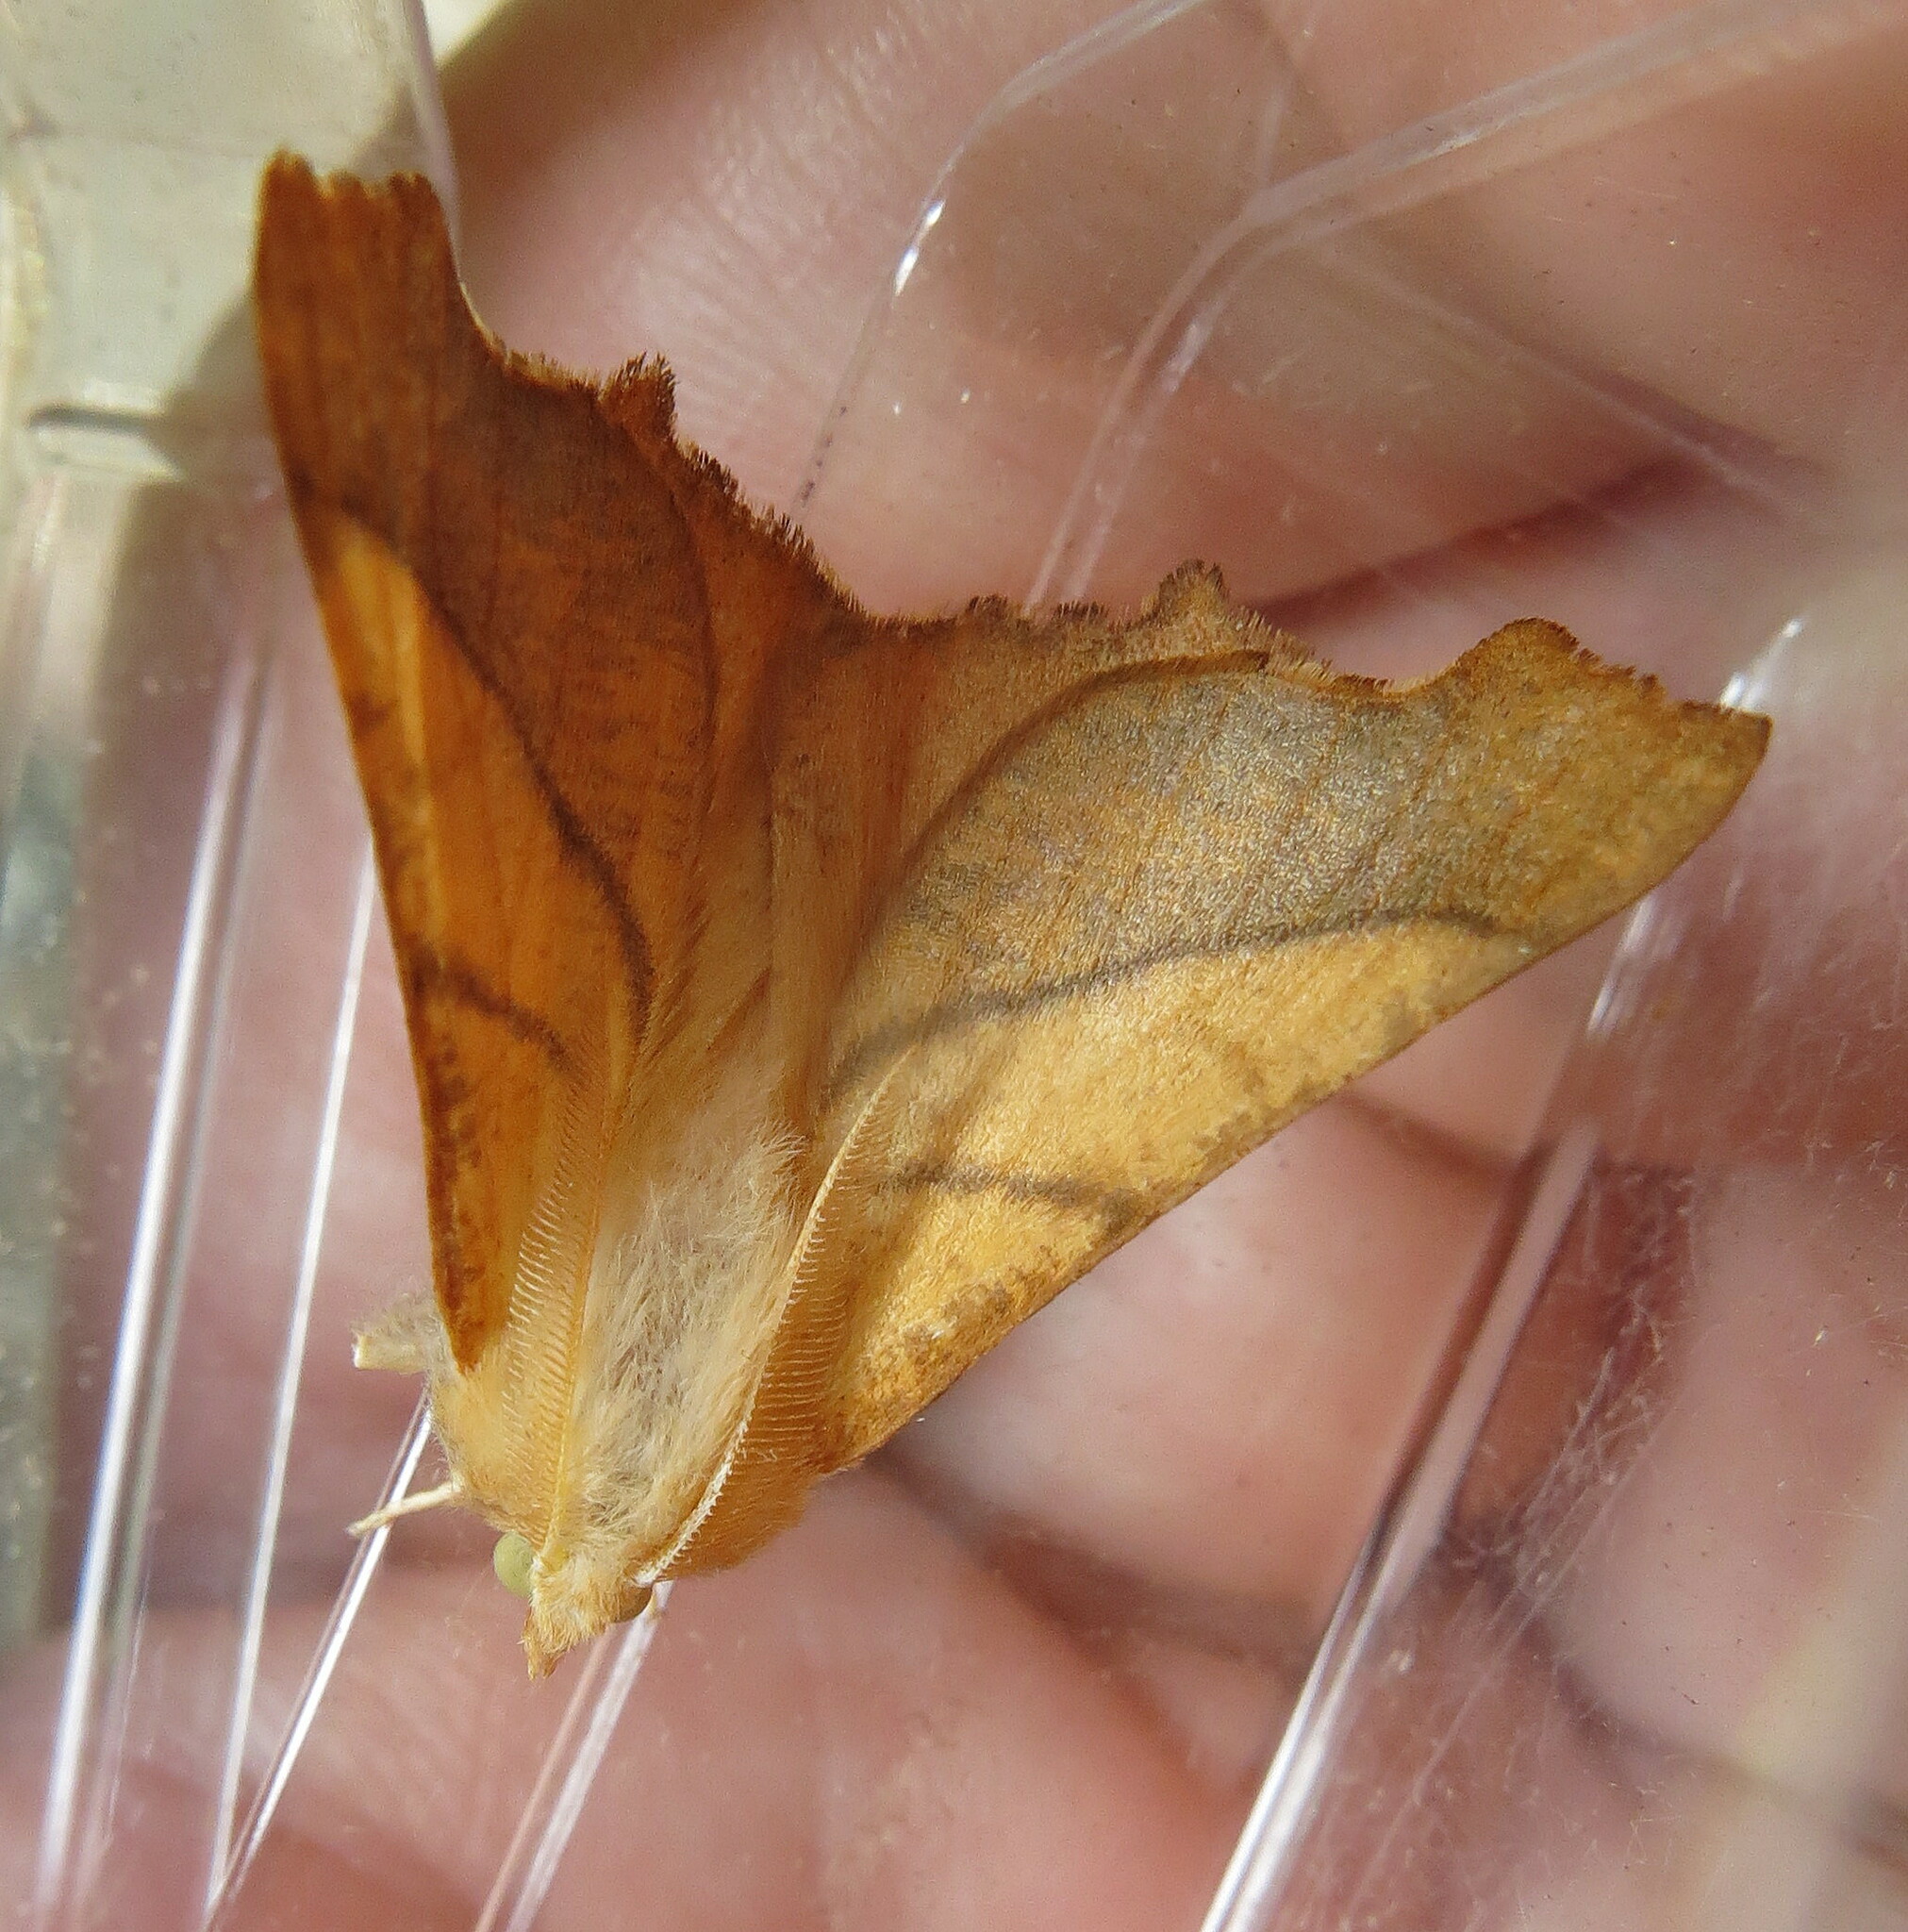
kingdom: Animalia
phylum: Arthropoda
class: Insecta
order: Lepidoptera
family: Geometridae
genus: Ennomos
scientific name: Ennomos fuscantaria
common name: Dusky thorn
